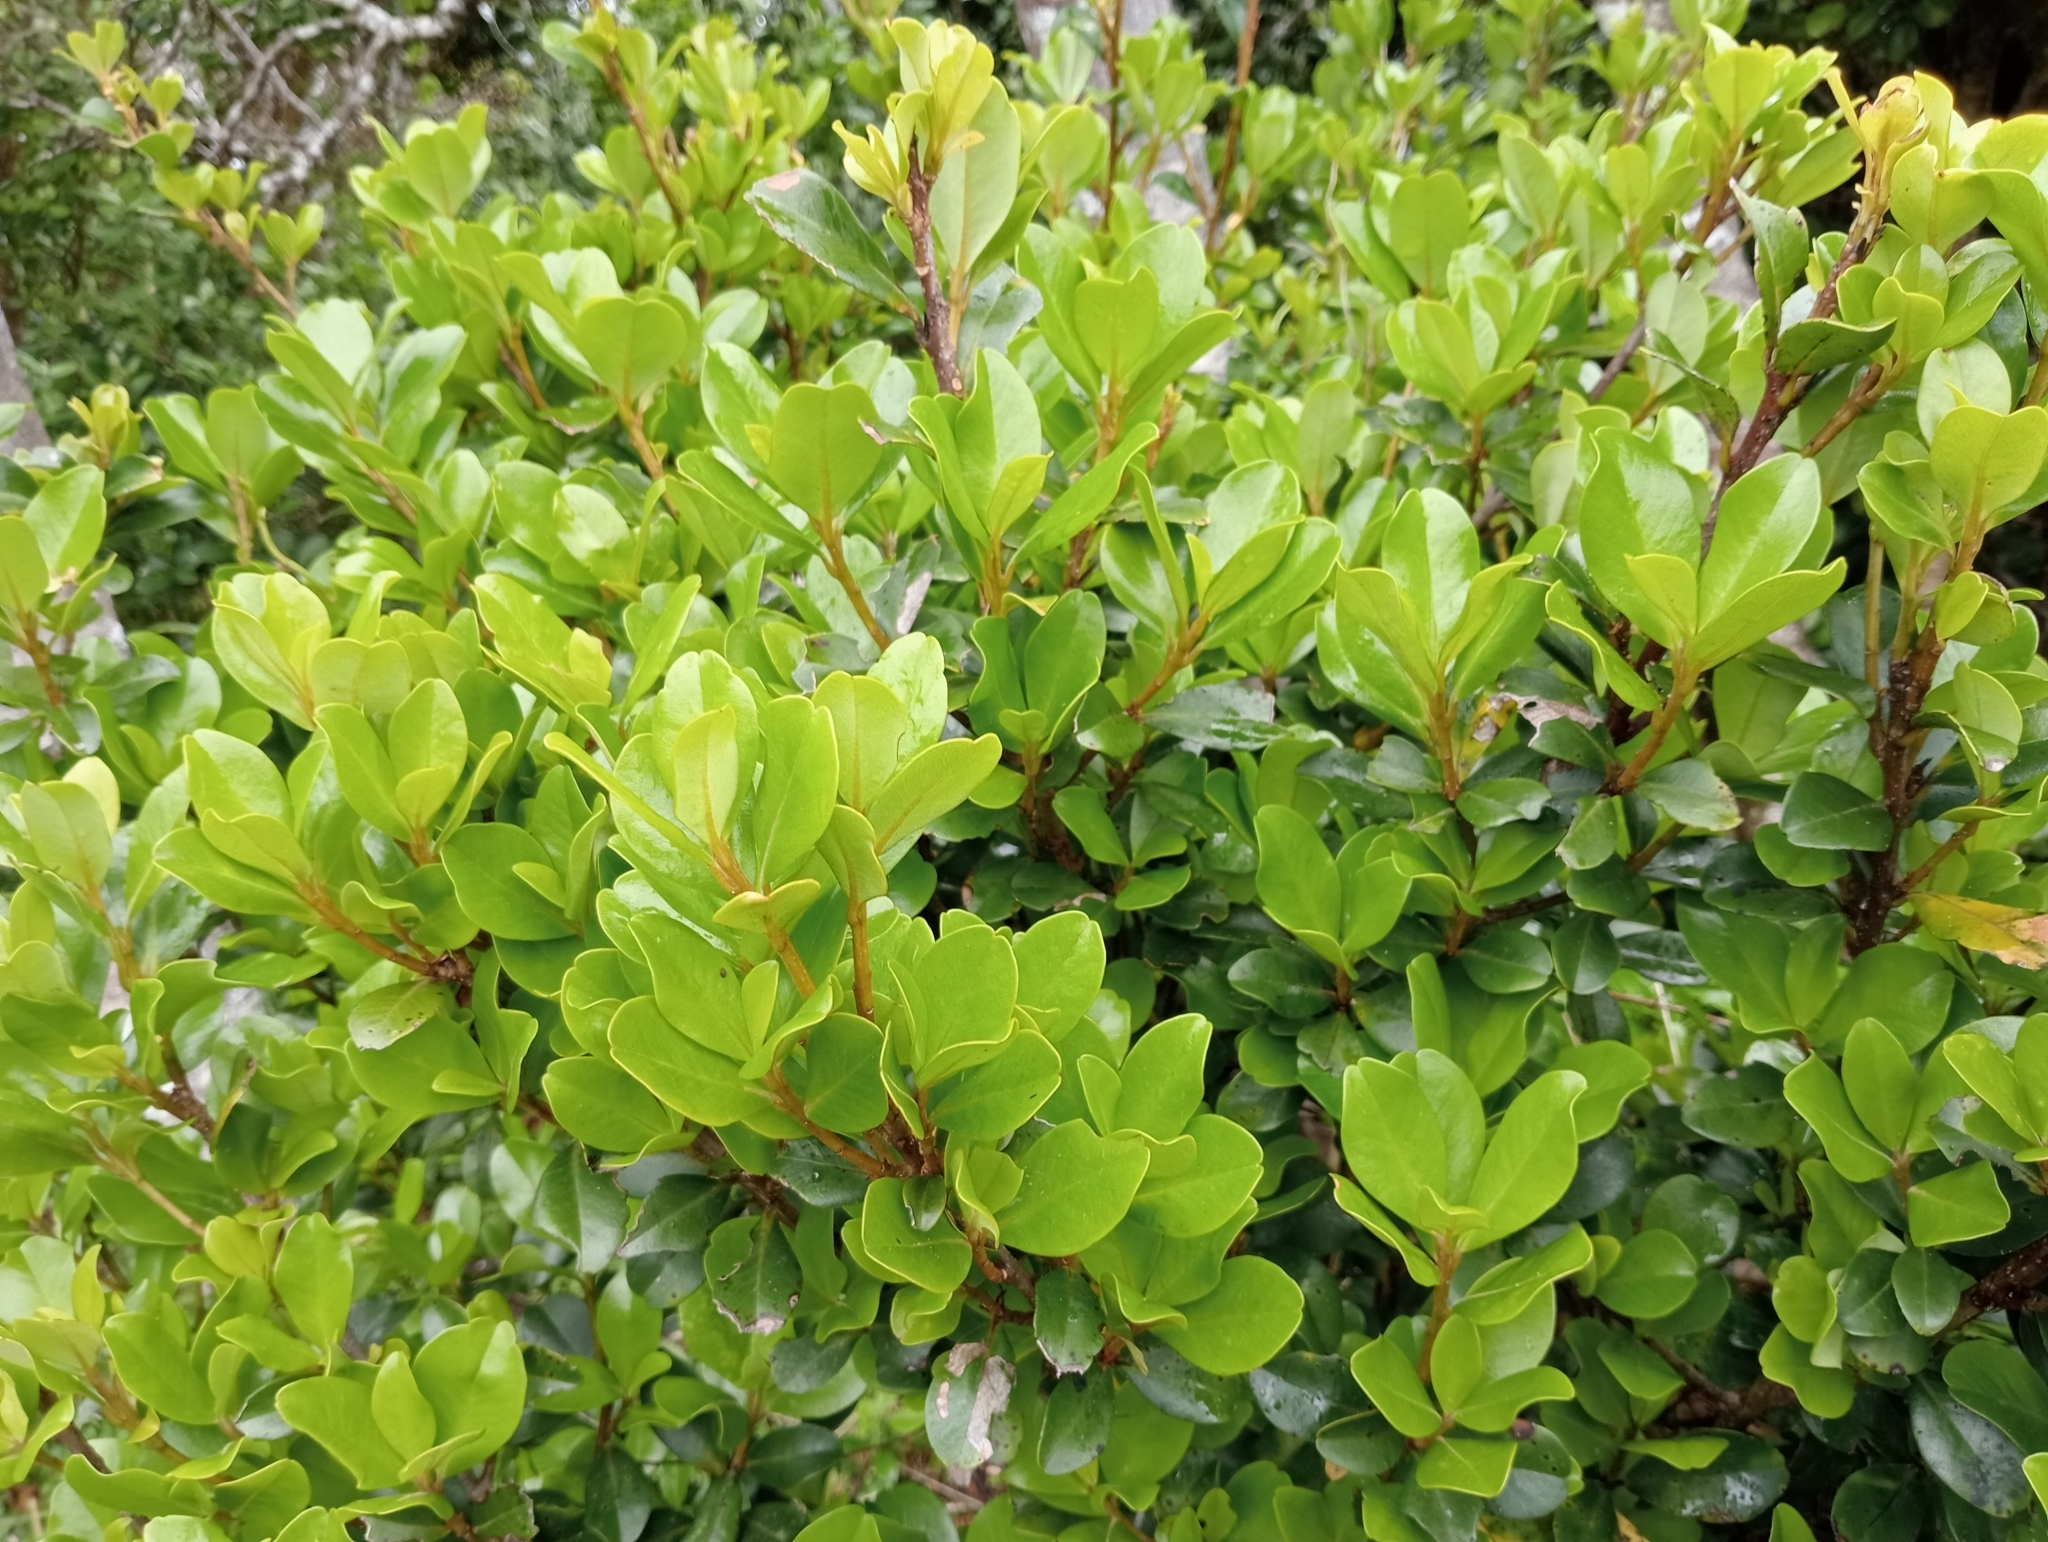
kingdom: Plantae
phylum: Tracheophyta
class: Magnoliopsida
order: Ericales
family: Primulaceae
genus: Myrsine
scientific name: Myrsine chathamica
